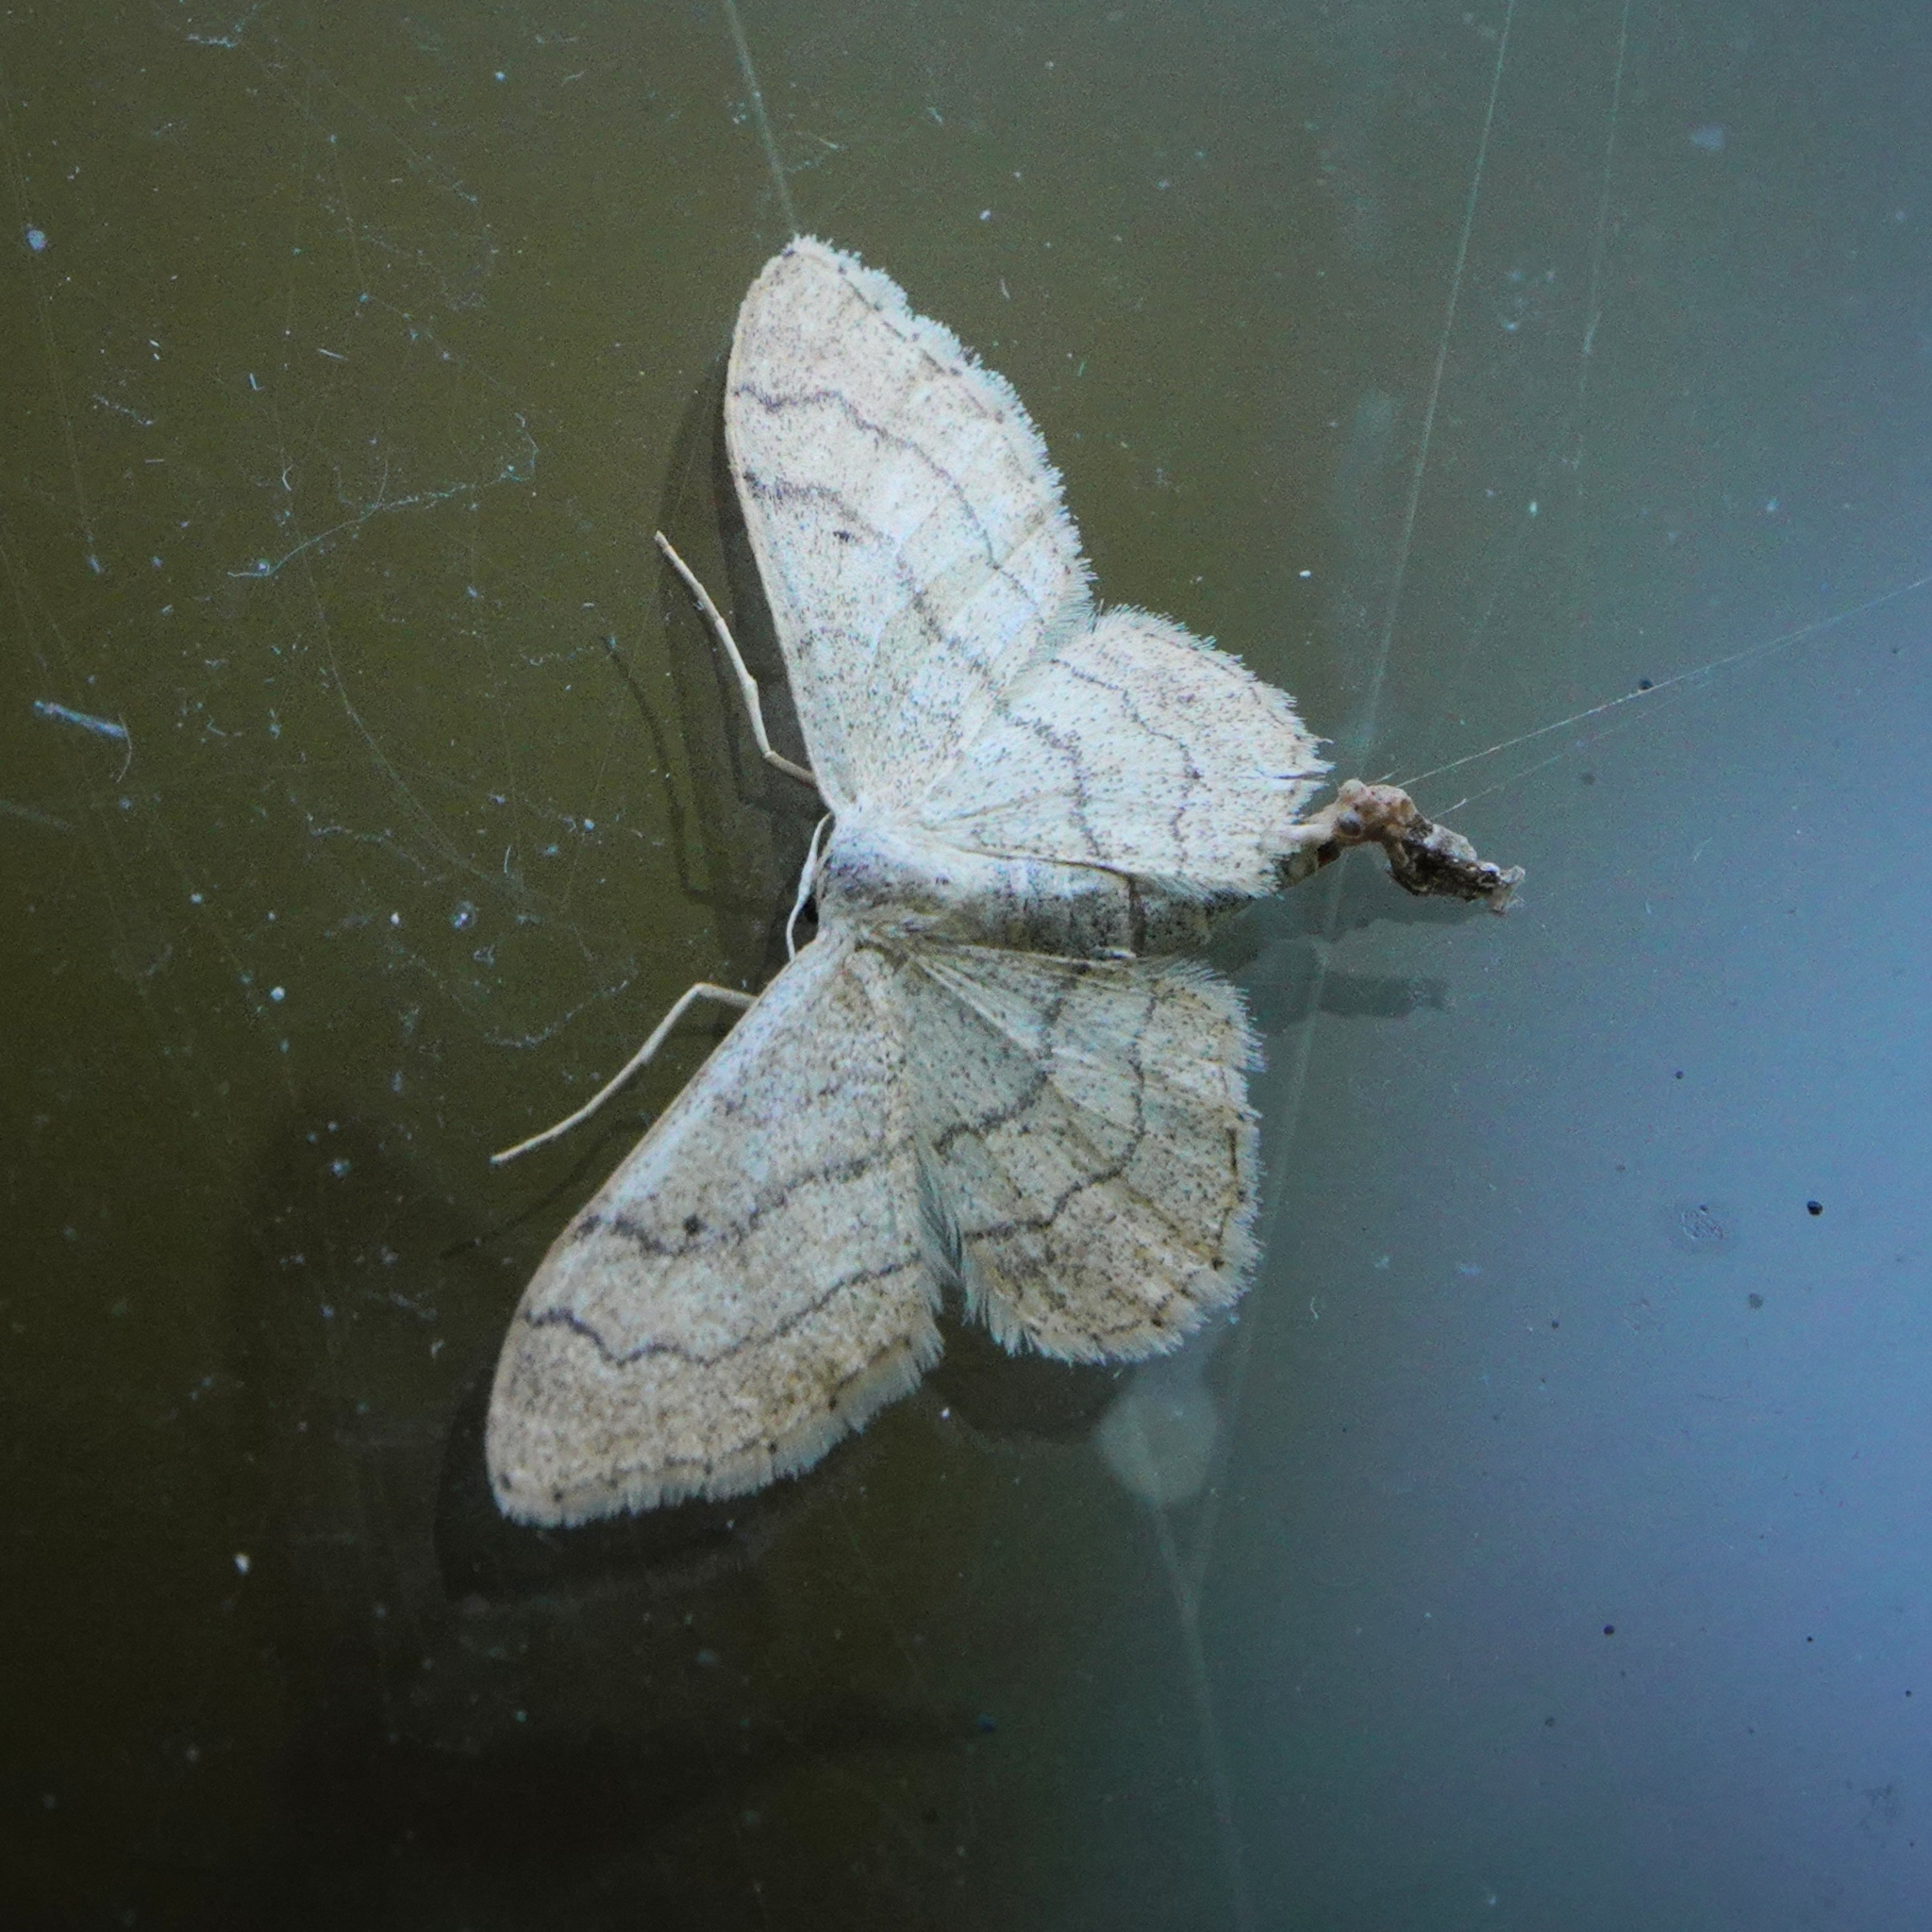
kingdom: Animalia
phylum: Arthropoda
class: Insecta
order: Lepidoptera
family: Geometridae
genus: Idaea
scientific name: Idaea aversata
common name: Riband wave
